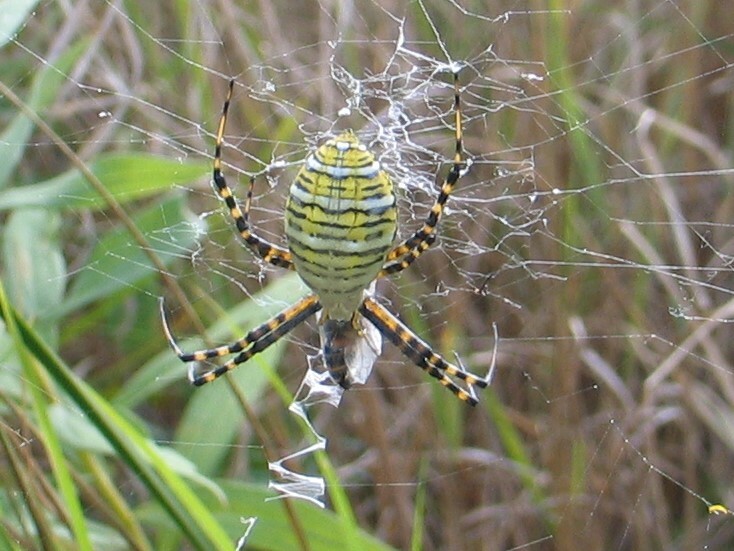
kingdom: Animalia
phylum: Arthropoda
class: Arachnida
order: Araneae
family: Araneidae
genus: Argiope
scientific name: Argiope trifasciata
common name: Banded garden spider
